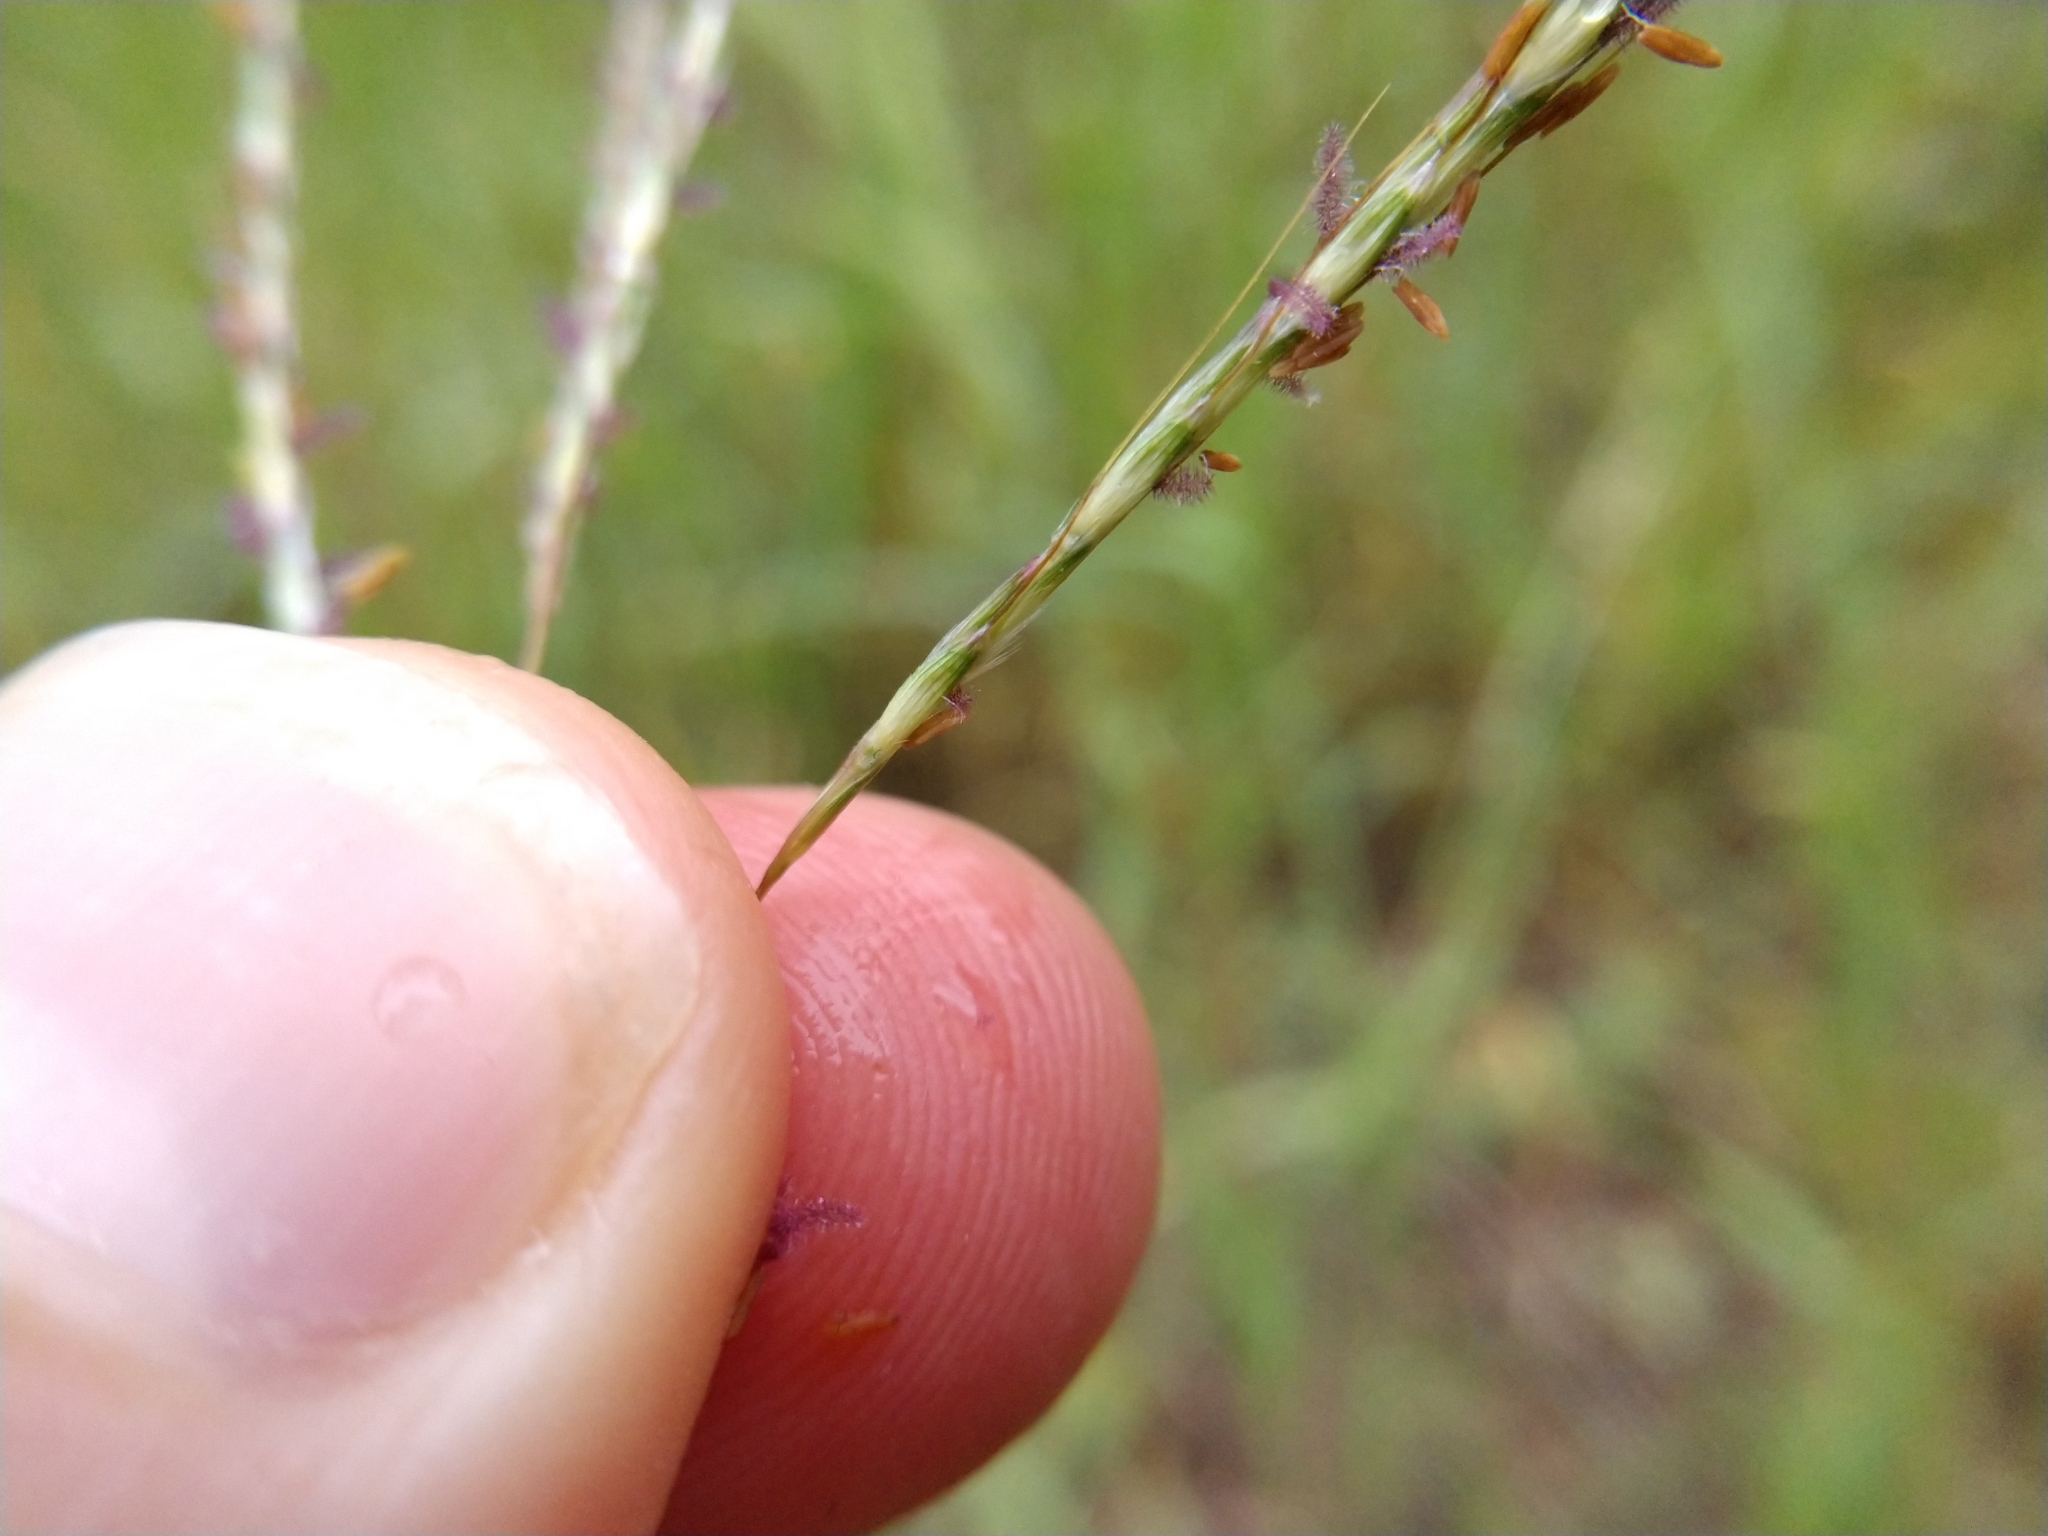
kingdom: Plantae
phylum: Tracheophyta
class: Liliopsida
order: Poales
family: Poaceae
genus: Bothriochloa
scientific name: Bothriochloa ischaemum
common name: Yellow bluestem
